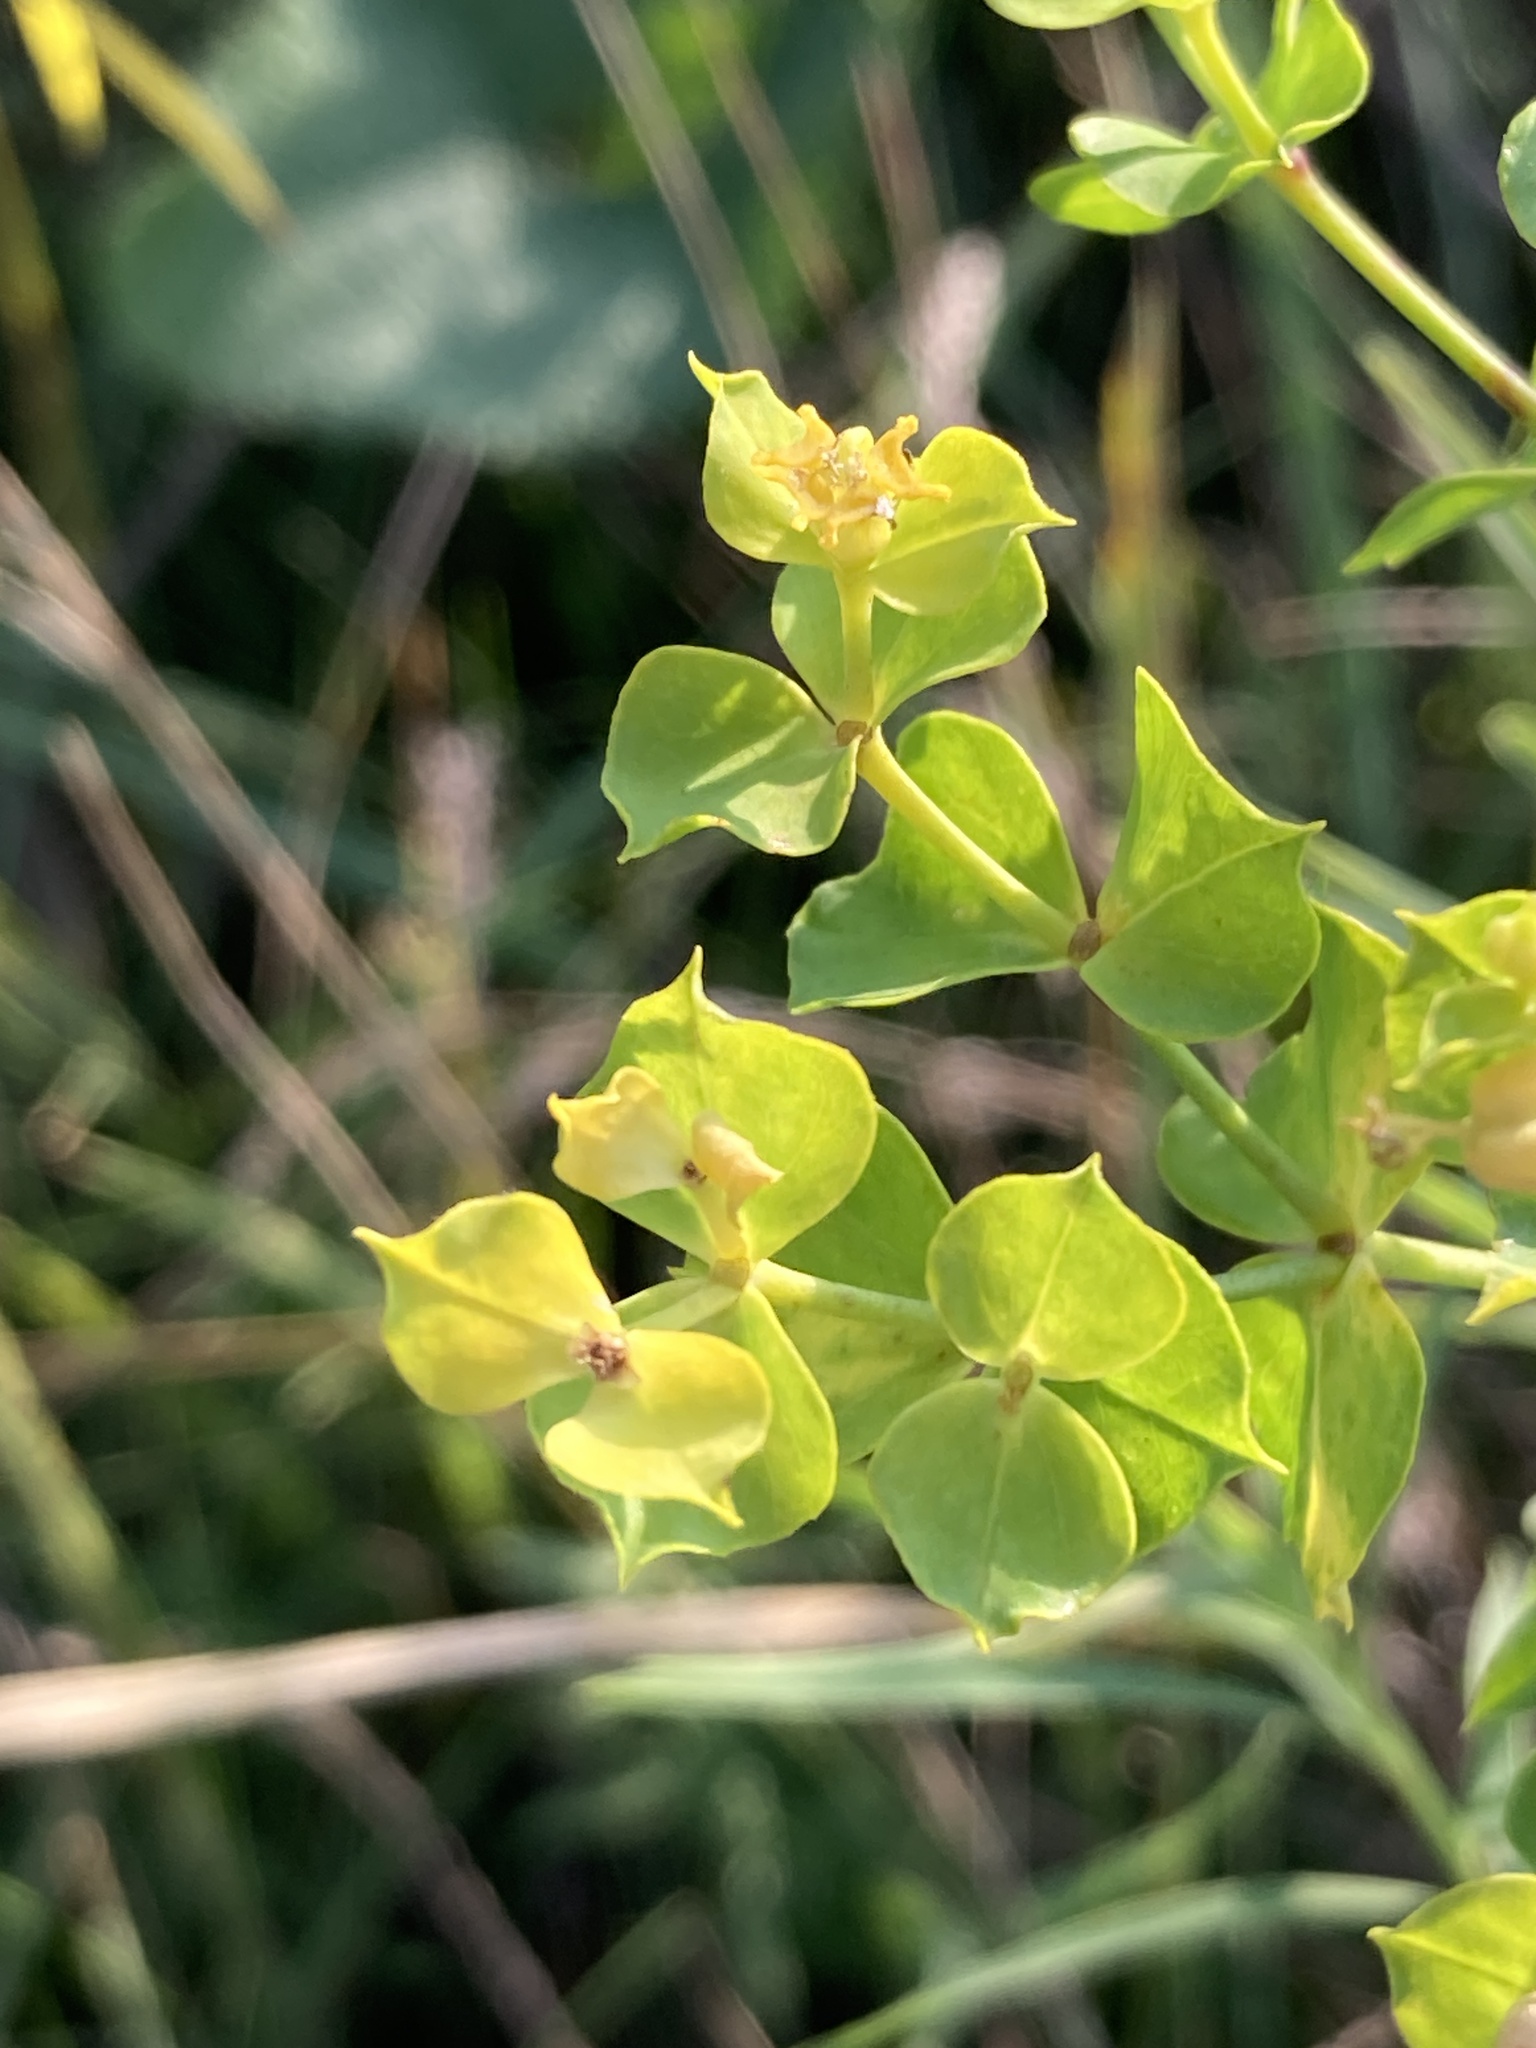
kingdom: Plantae
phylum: Tracheophyta
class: Magnoliopsida
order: Malpighiales
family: Euphorbiaceae
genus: Euphorbia
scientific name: Euphorbia virgata
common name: Leafy spurge
